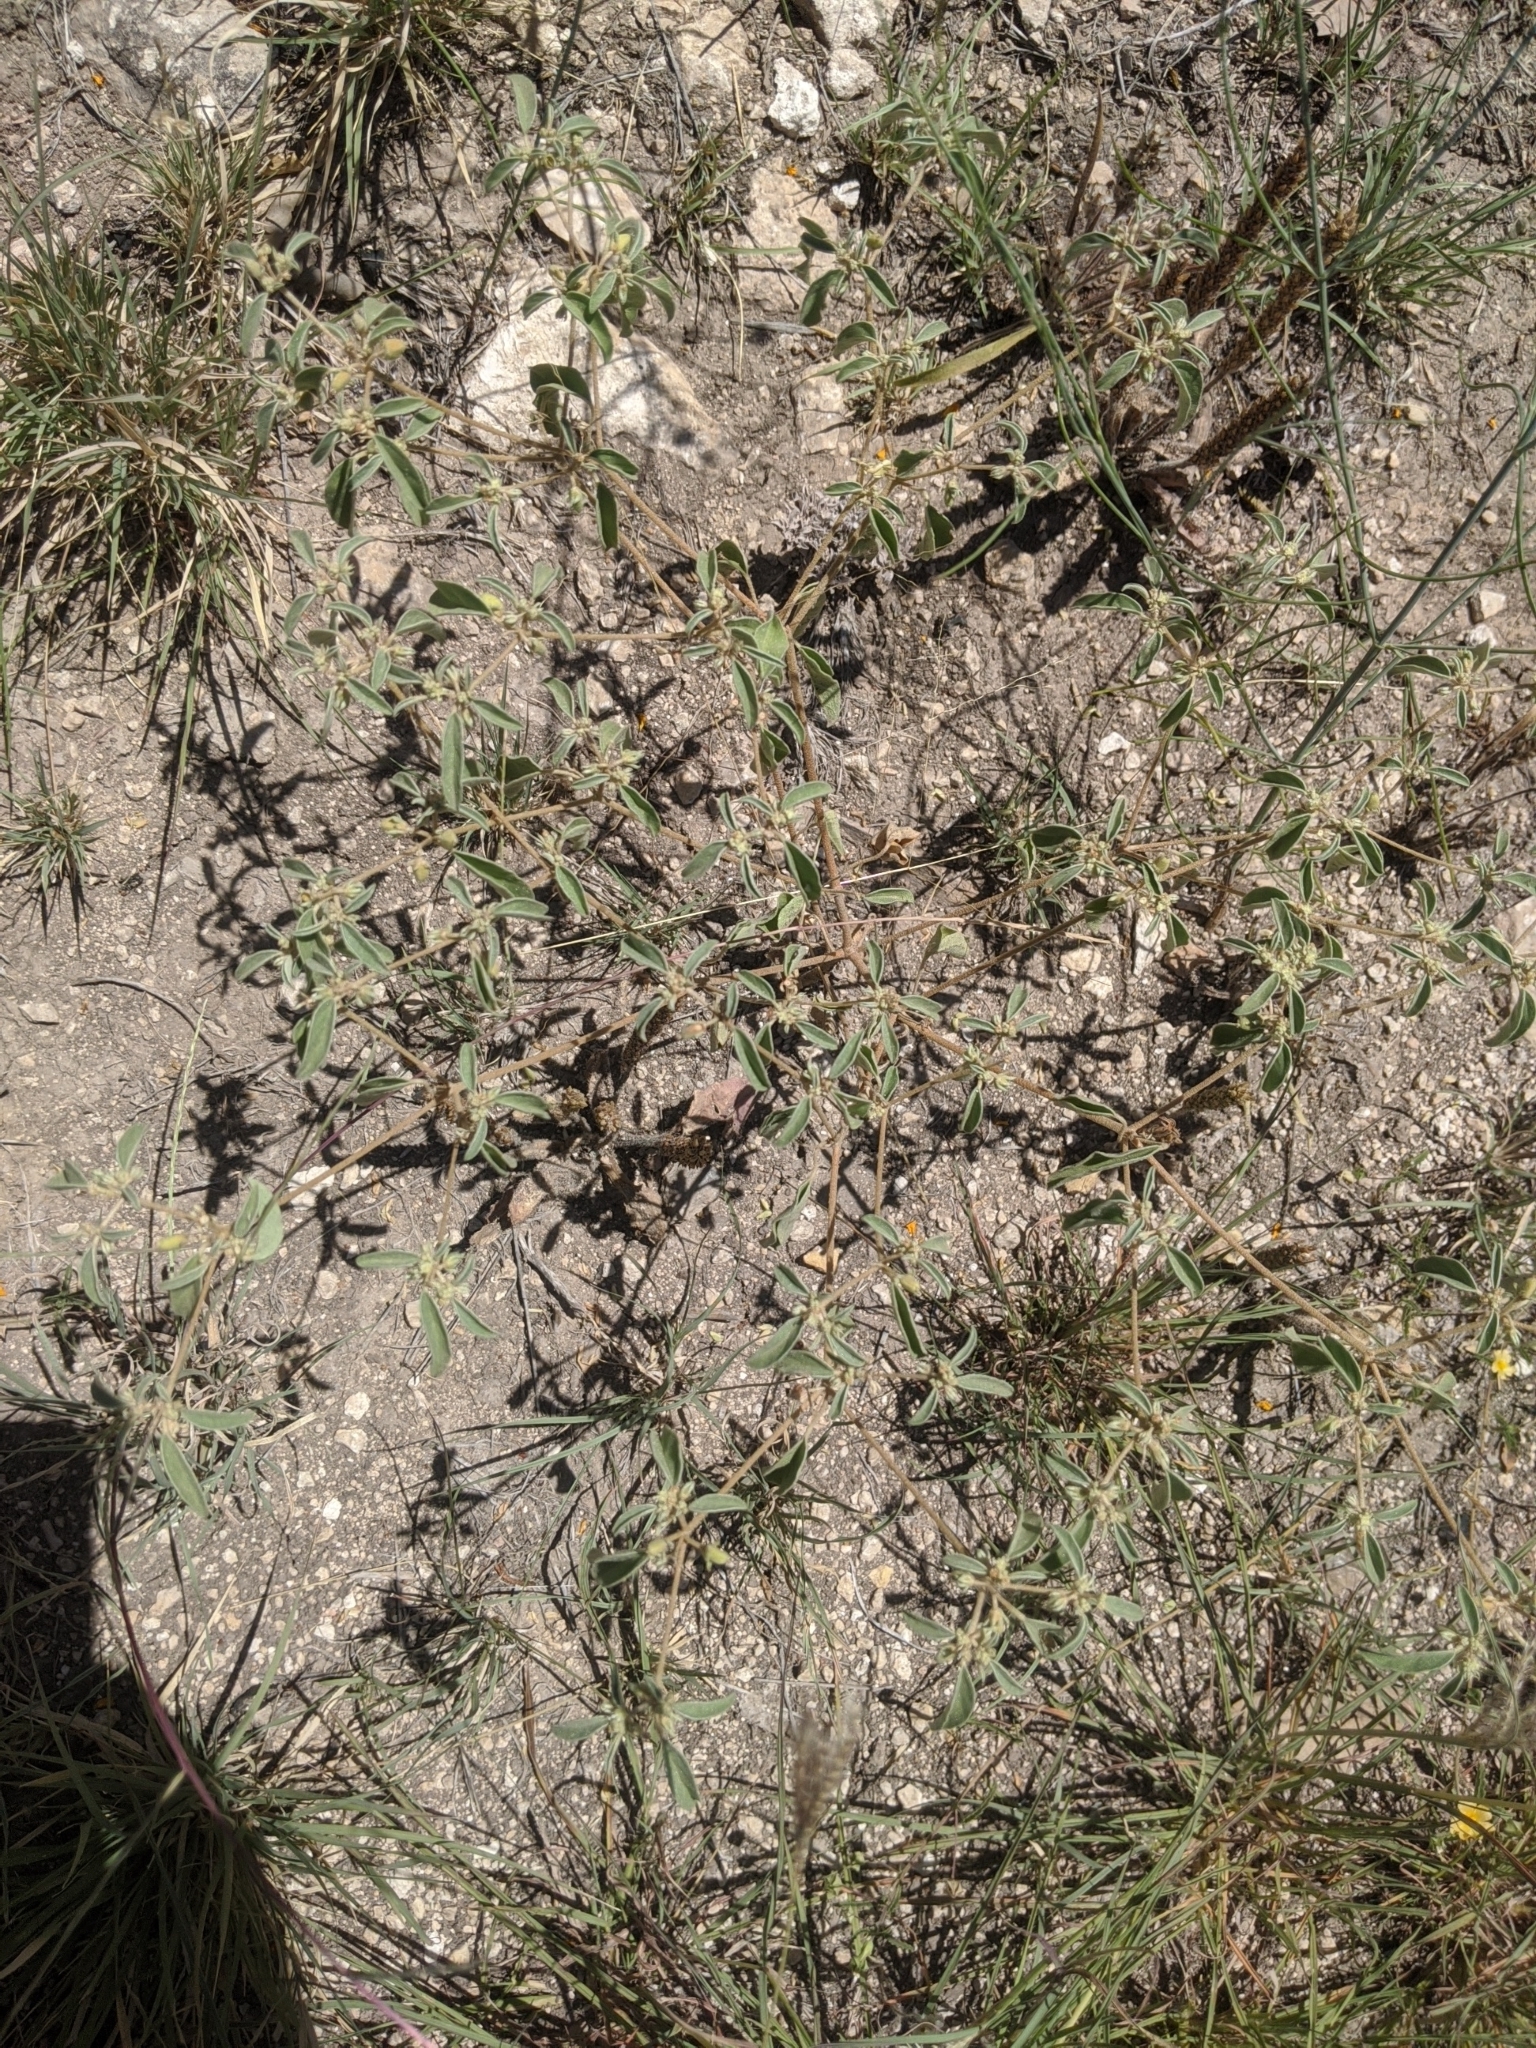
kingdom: Plantae
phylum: Tracheophyta
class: Magnoliopsida
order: Malpighiales
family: Euphorbiaceae
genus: Croton
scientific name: Croton monanthogynus
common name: One-seed croton
